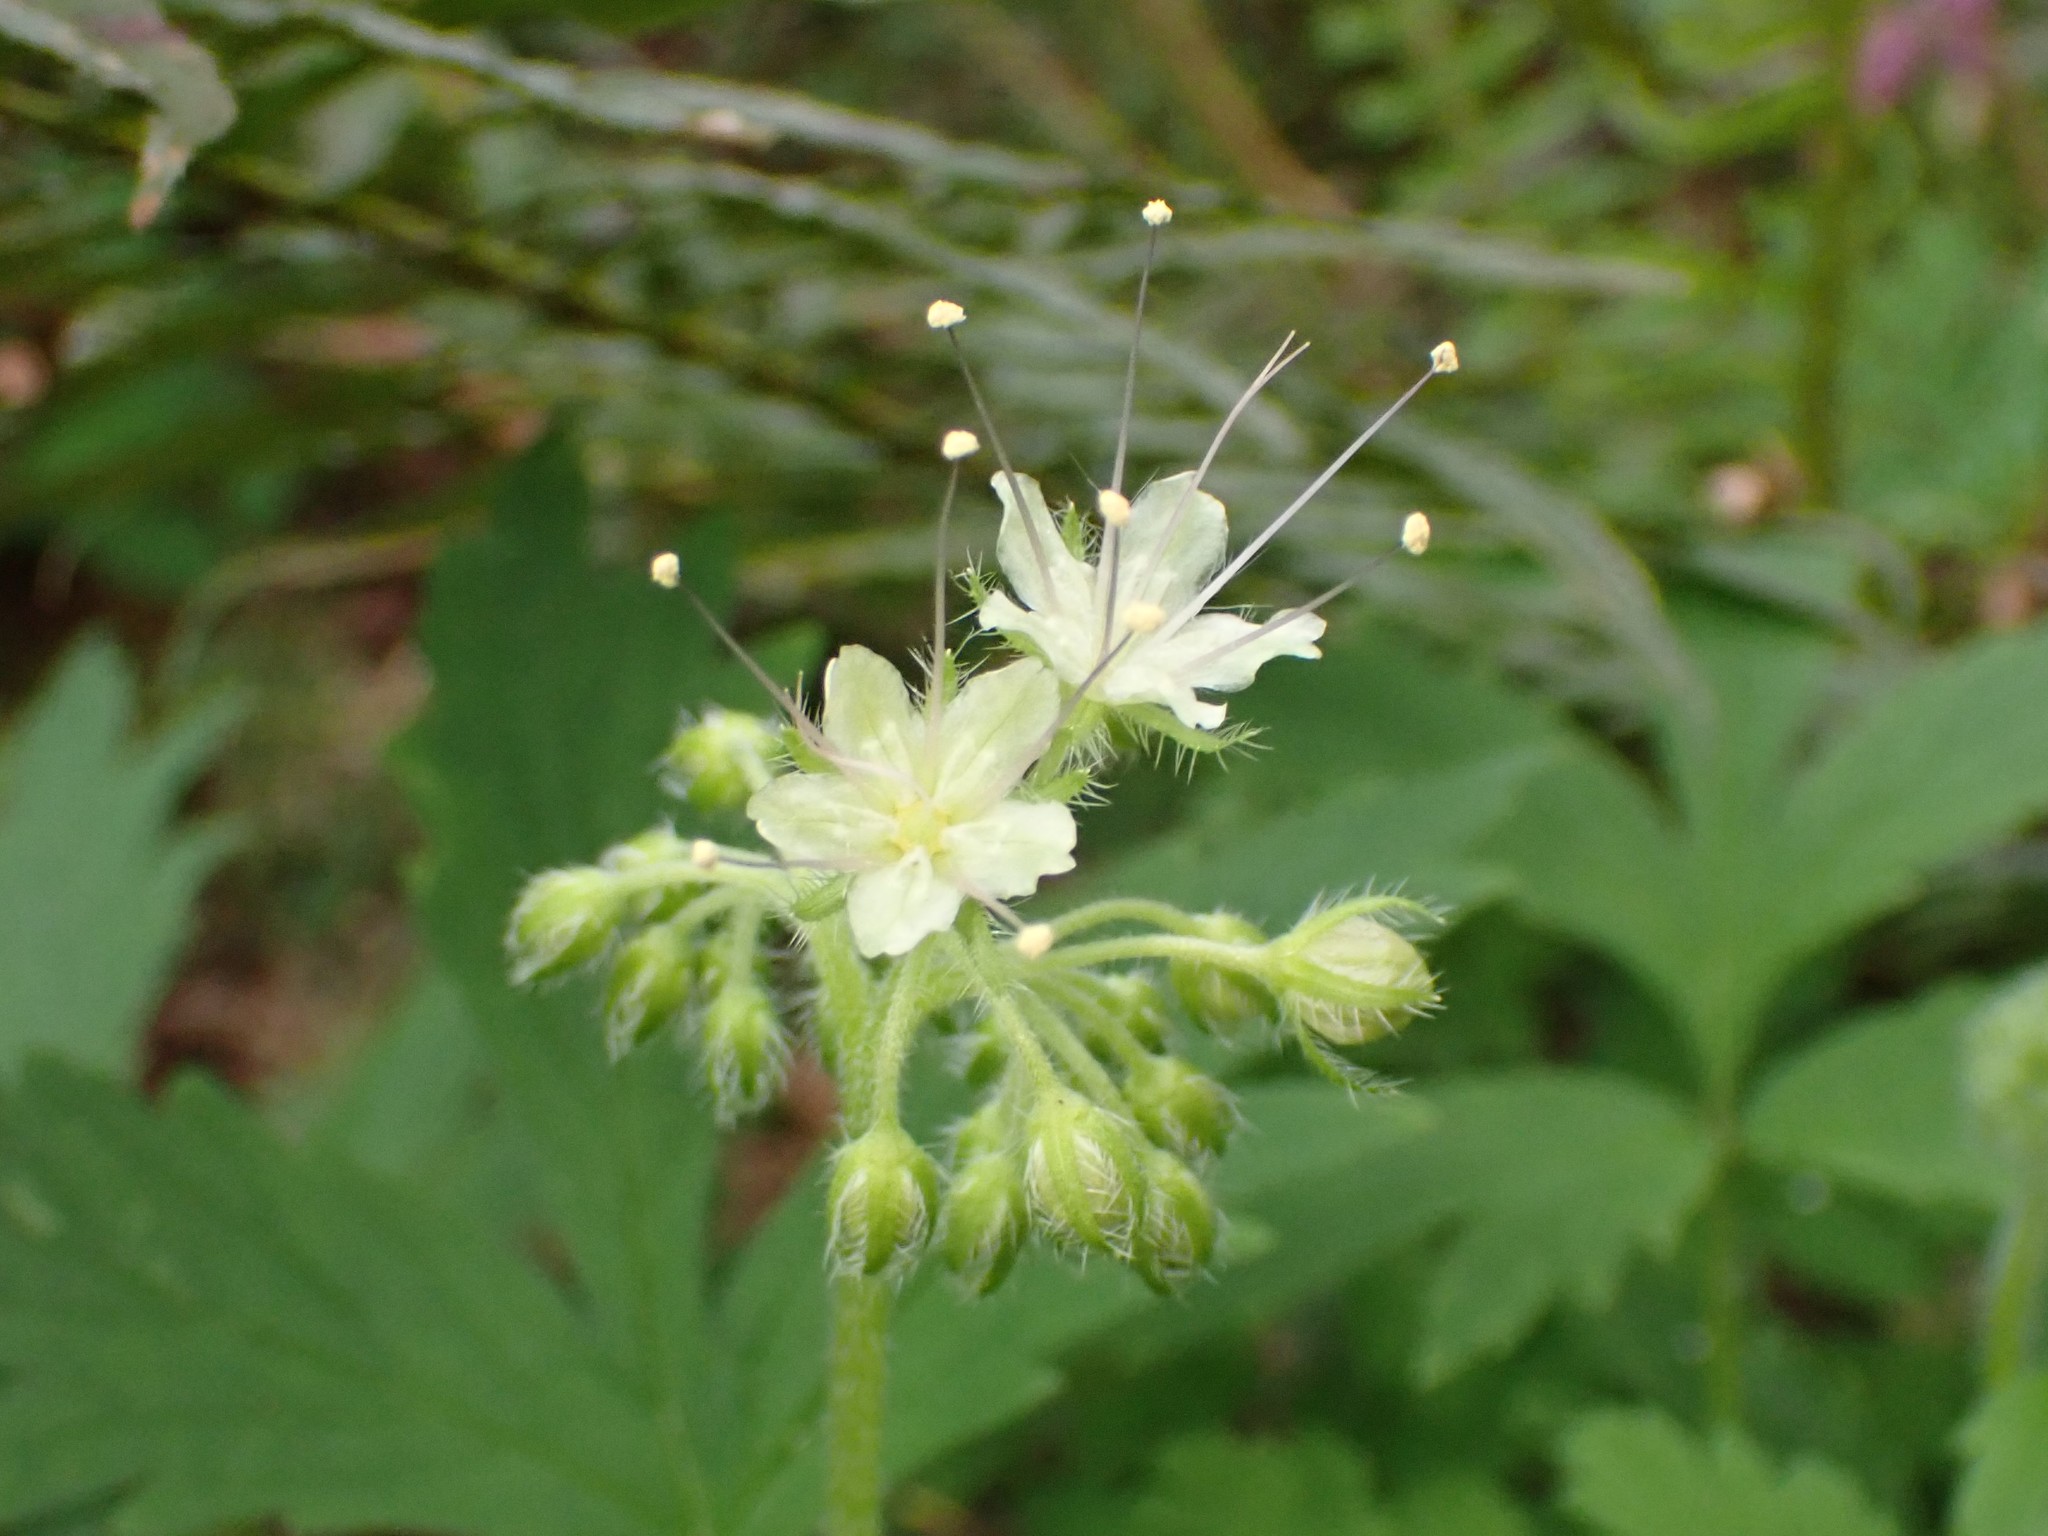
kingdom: Plantae
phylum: Tracheophyta
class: Magnoliopsida
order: Boraginales
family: Hydrophyllaceae
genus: Hydrophyllum
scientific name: Hydrophyllum tenuipes
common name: Pacific waterleaf
